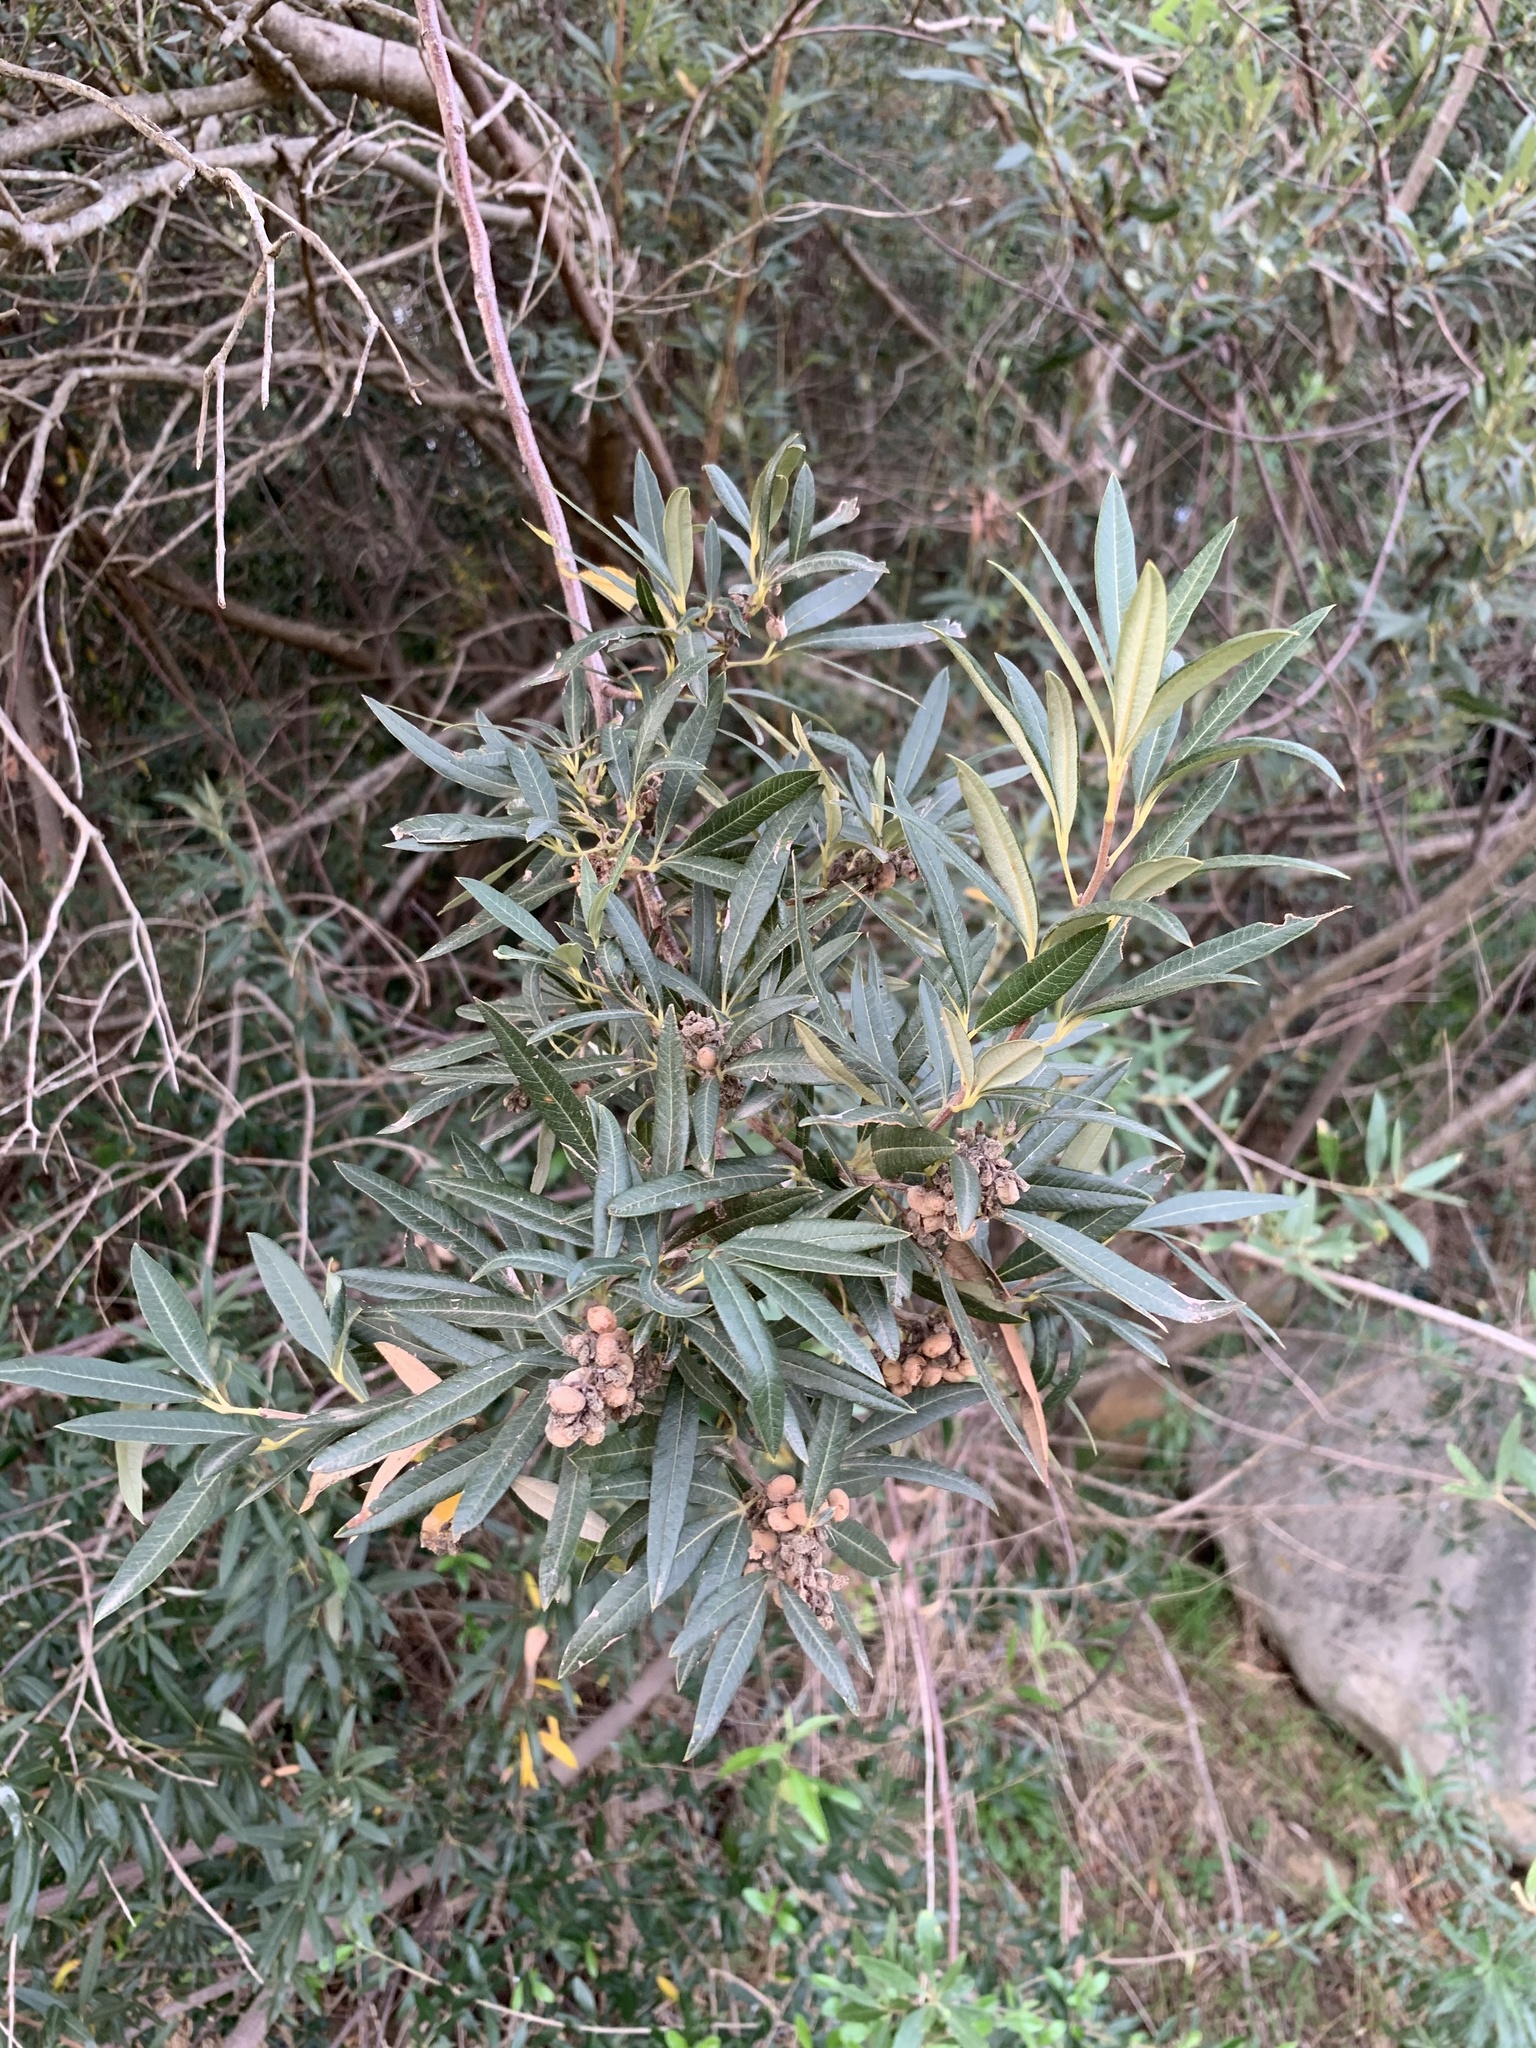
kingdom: Plantae
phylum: Tracheophyta
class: Magnoliopsida
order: Sapindales
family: Anacardiaceae
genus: Searsia
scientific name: Searsia angustifolia
